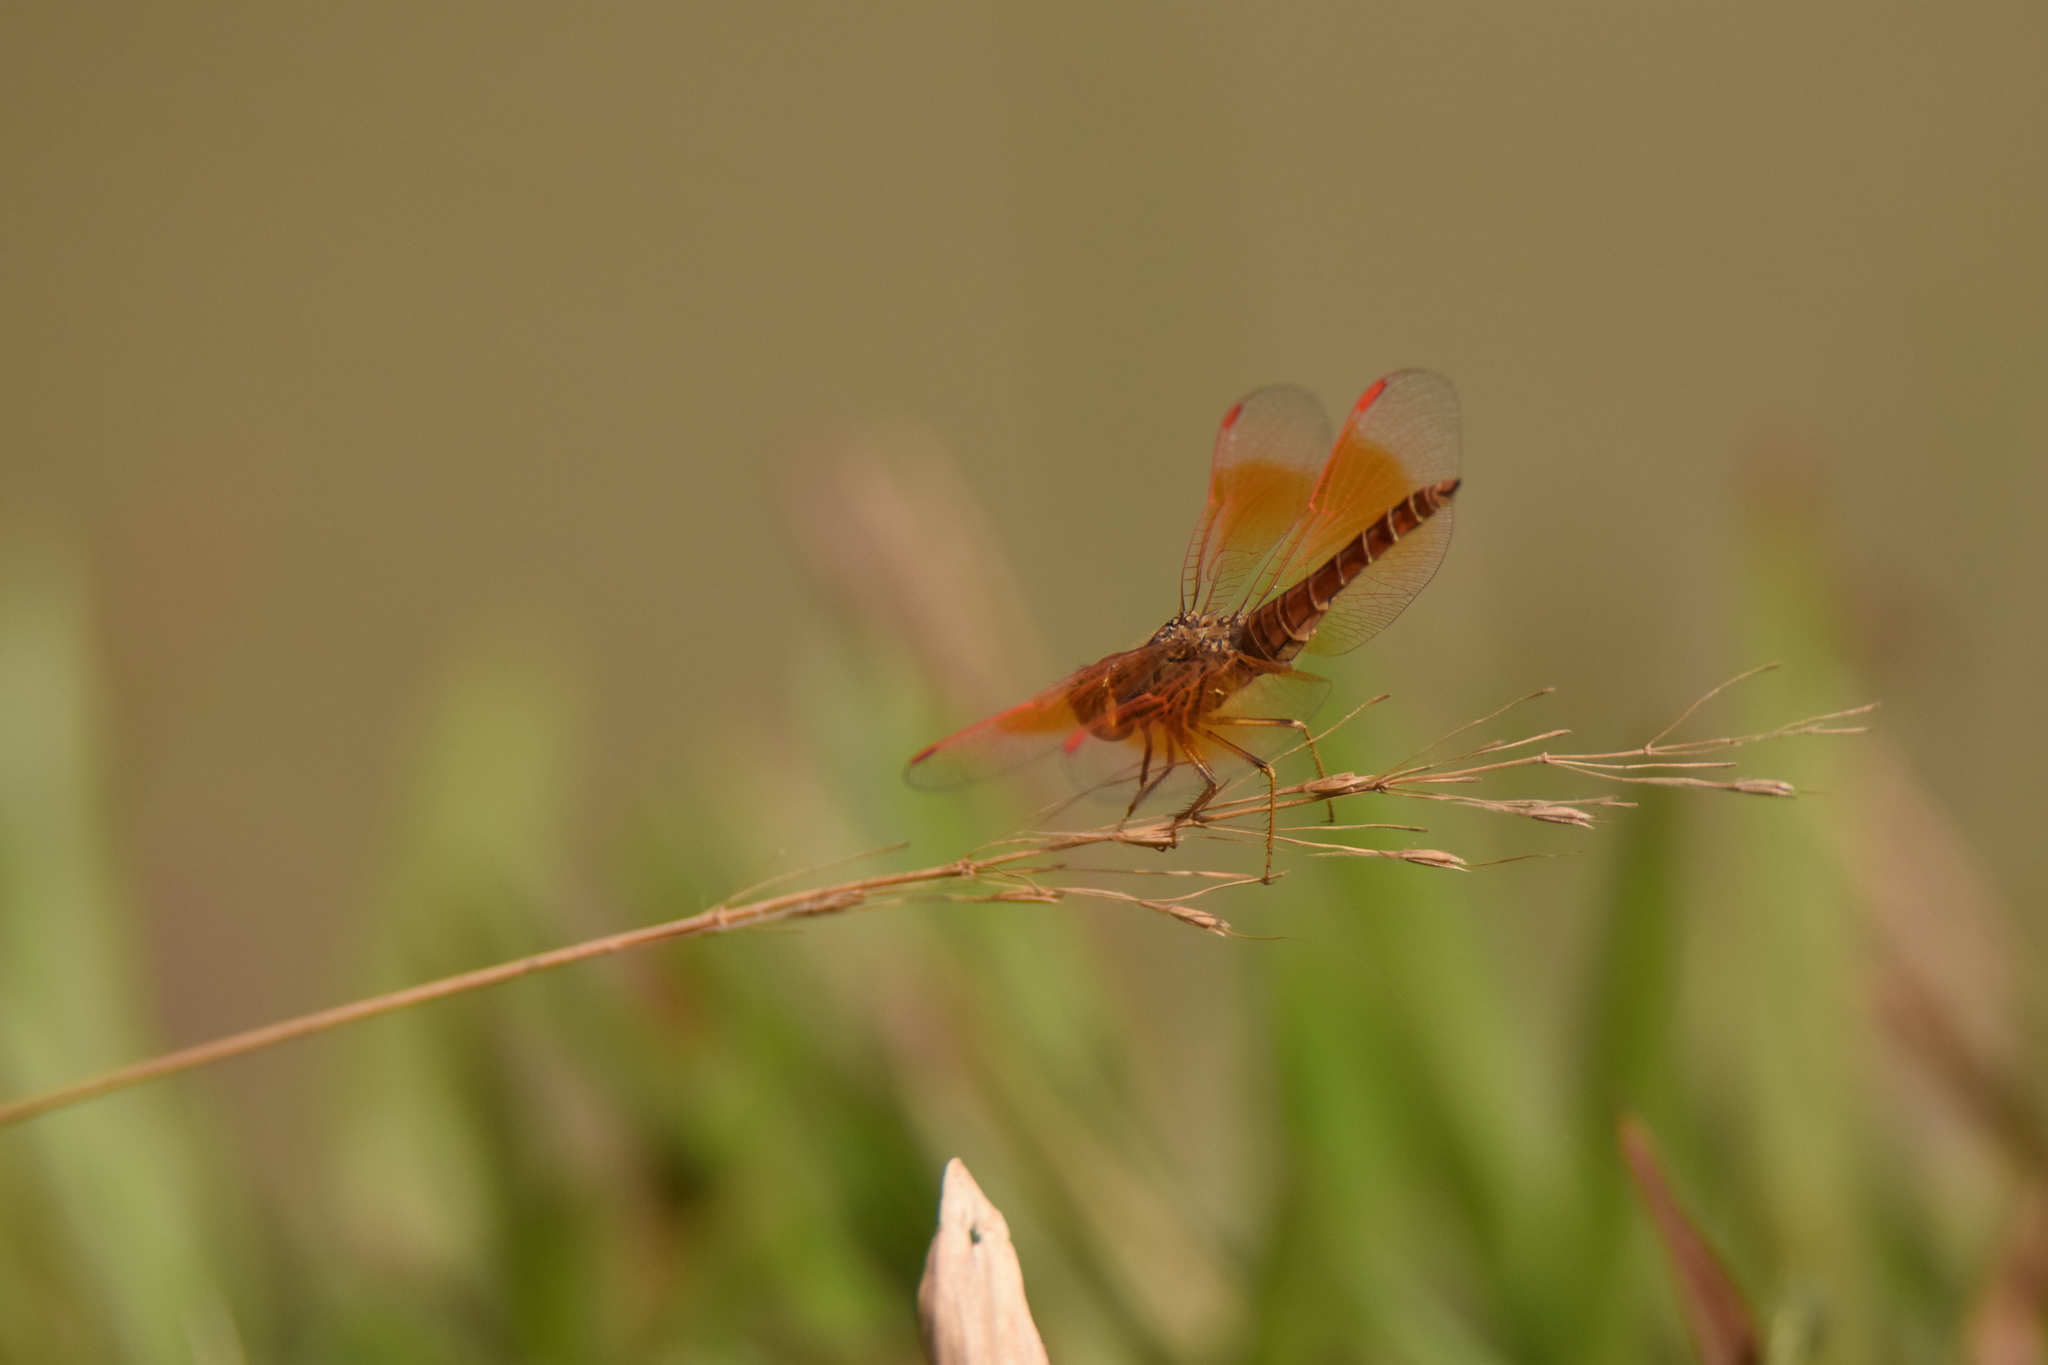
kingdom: Animalia
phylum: Arthropoda
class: Insecta
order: Odonata
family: Libellulidae
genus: Brachythemis
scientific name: Brachythemis contaminata
